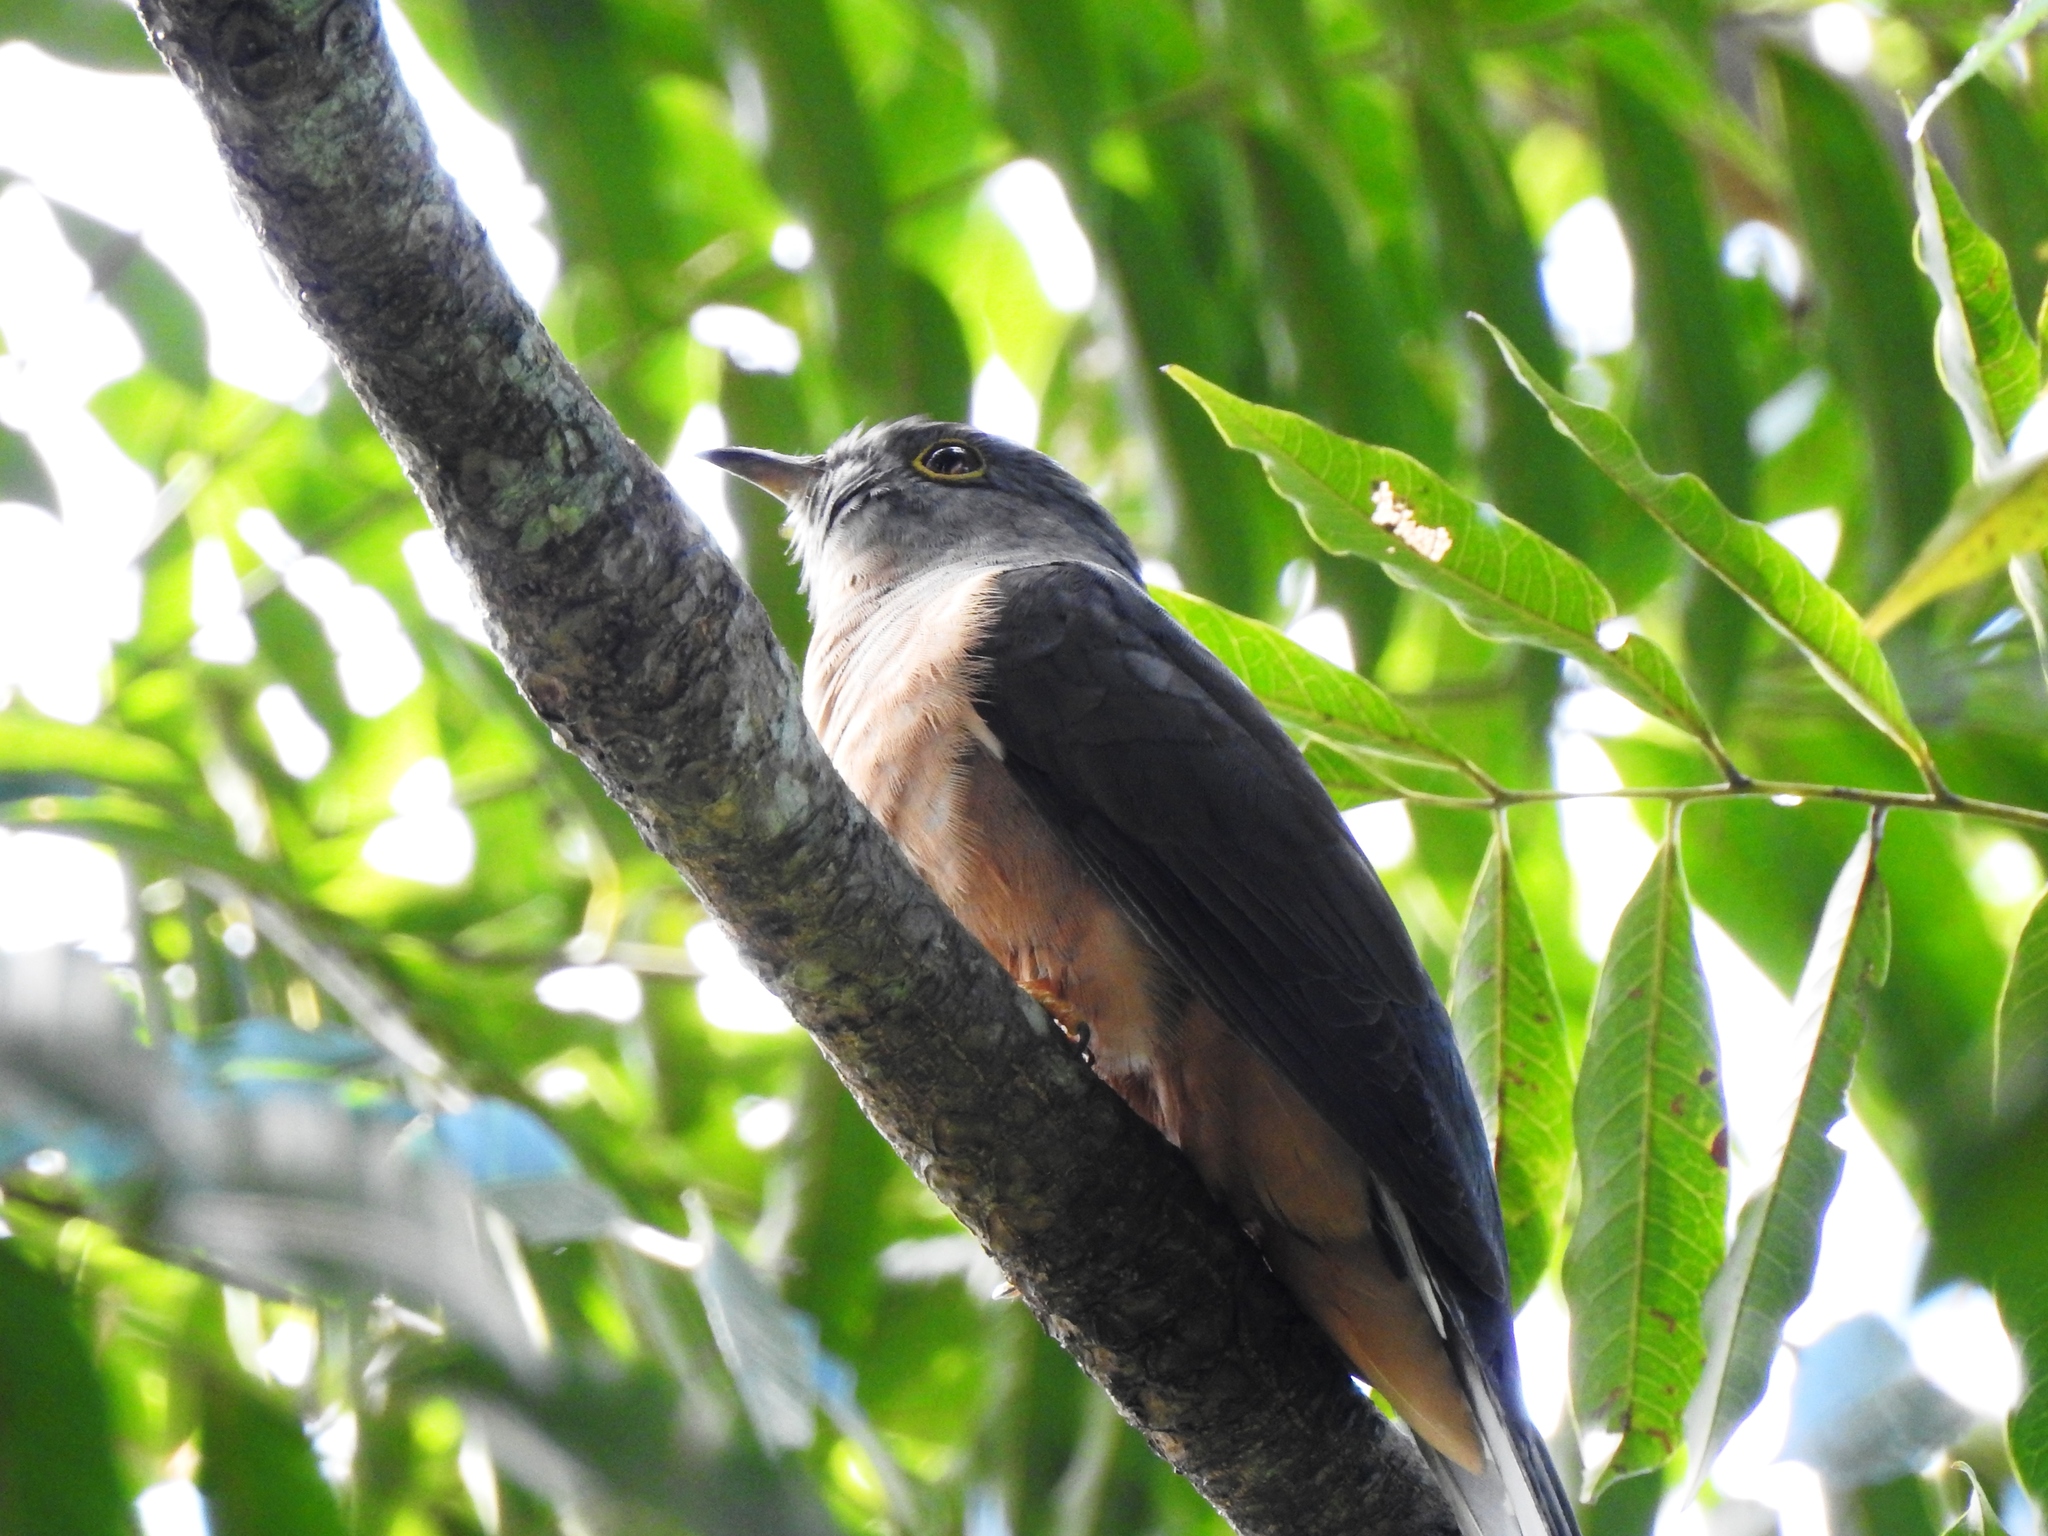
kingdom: Animalia
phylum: Chordata
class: Aves
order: Cuculiformes
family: Cuculidae
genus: Cacomantis
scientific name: Cacomantis variolosus
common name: Brush cuckoo
